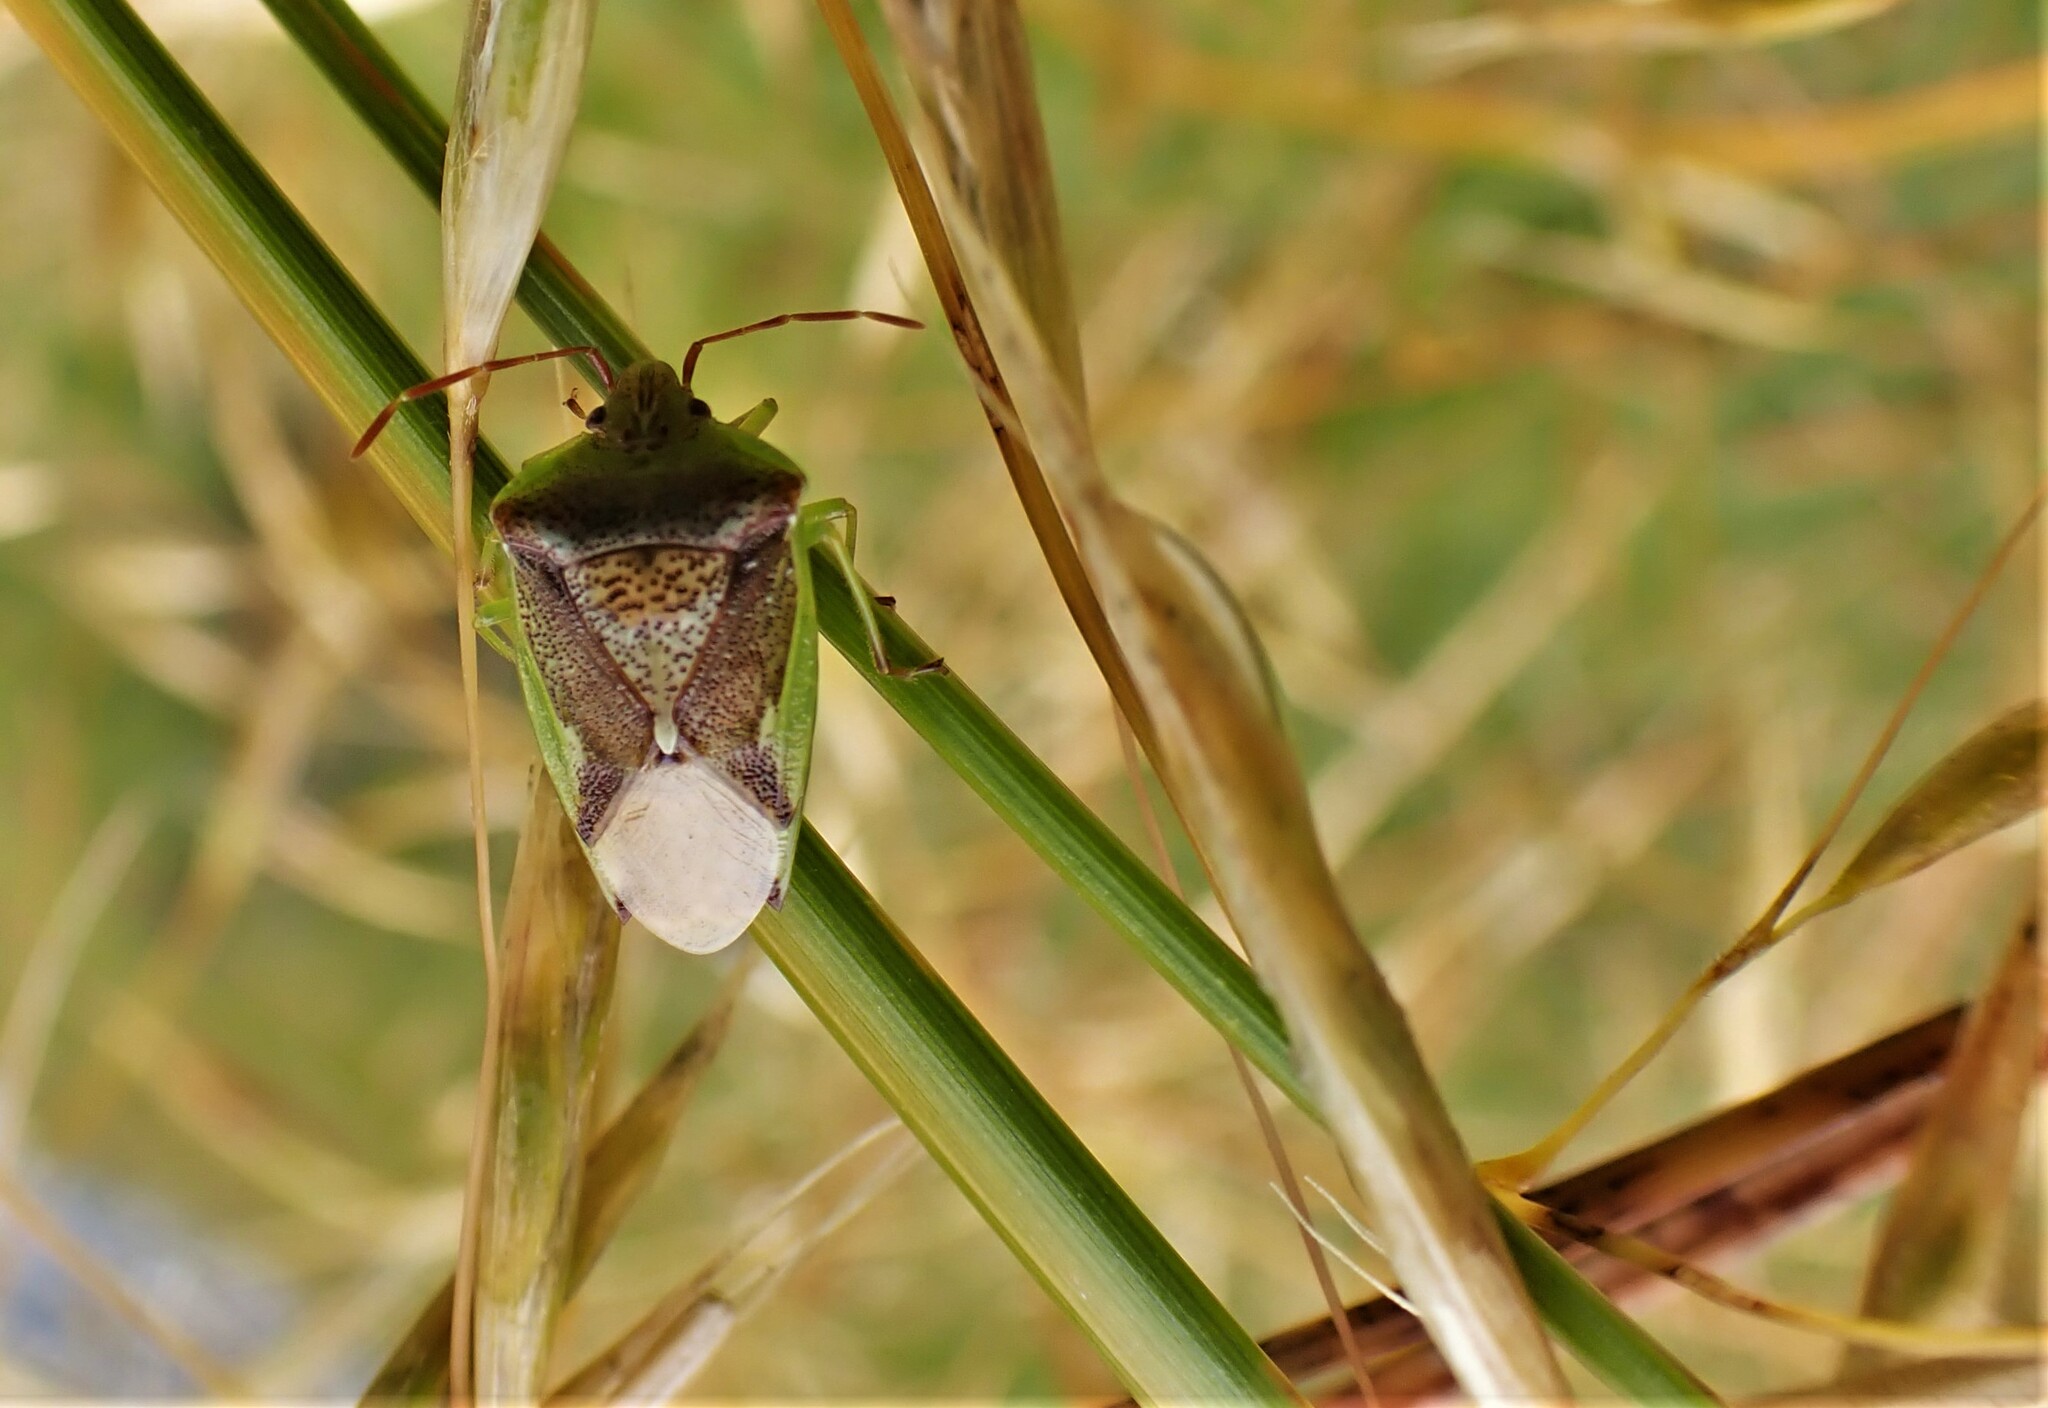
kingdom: Animalia
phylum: Arthropoda
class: Insecta
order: Hemiptera
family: Acanthosomatidae
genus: Oncacontias
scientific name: Oncacontias vittatus
